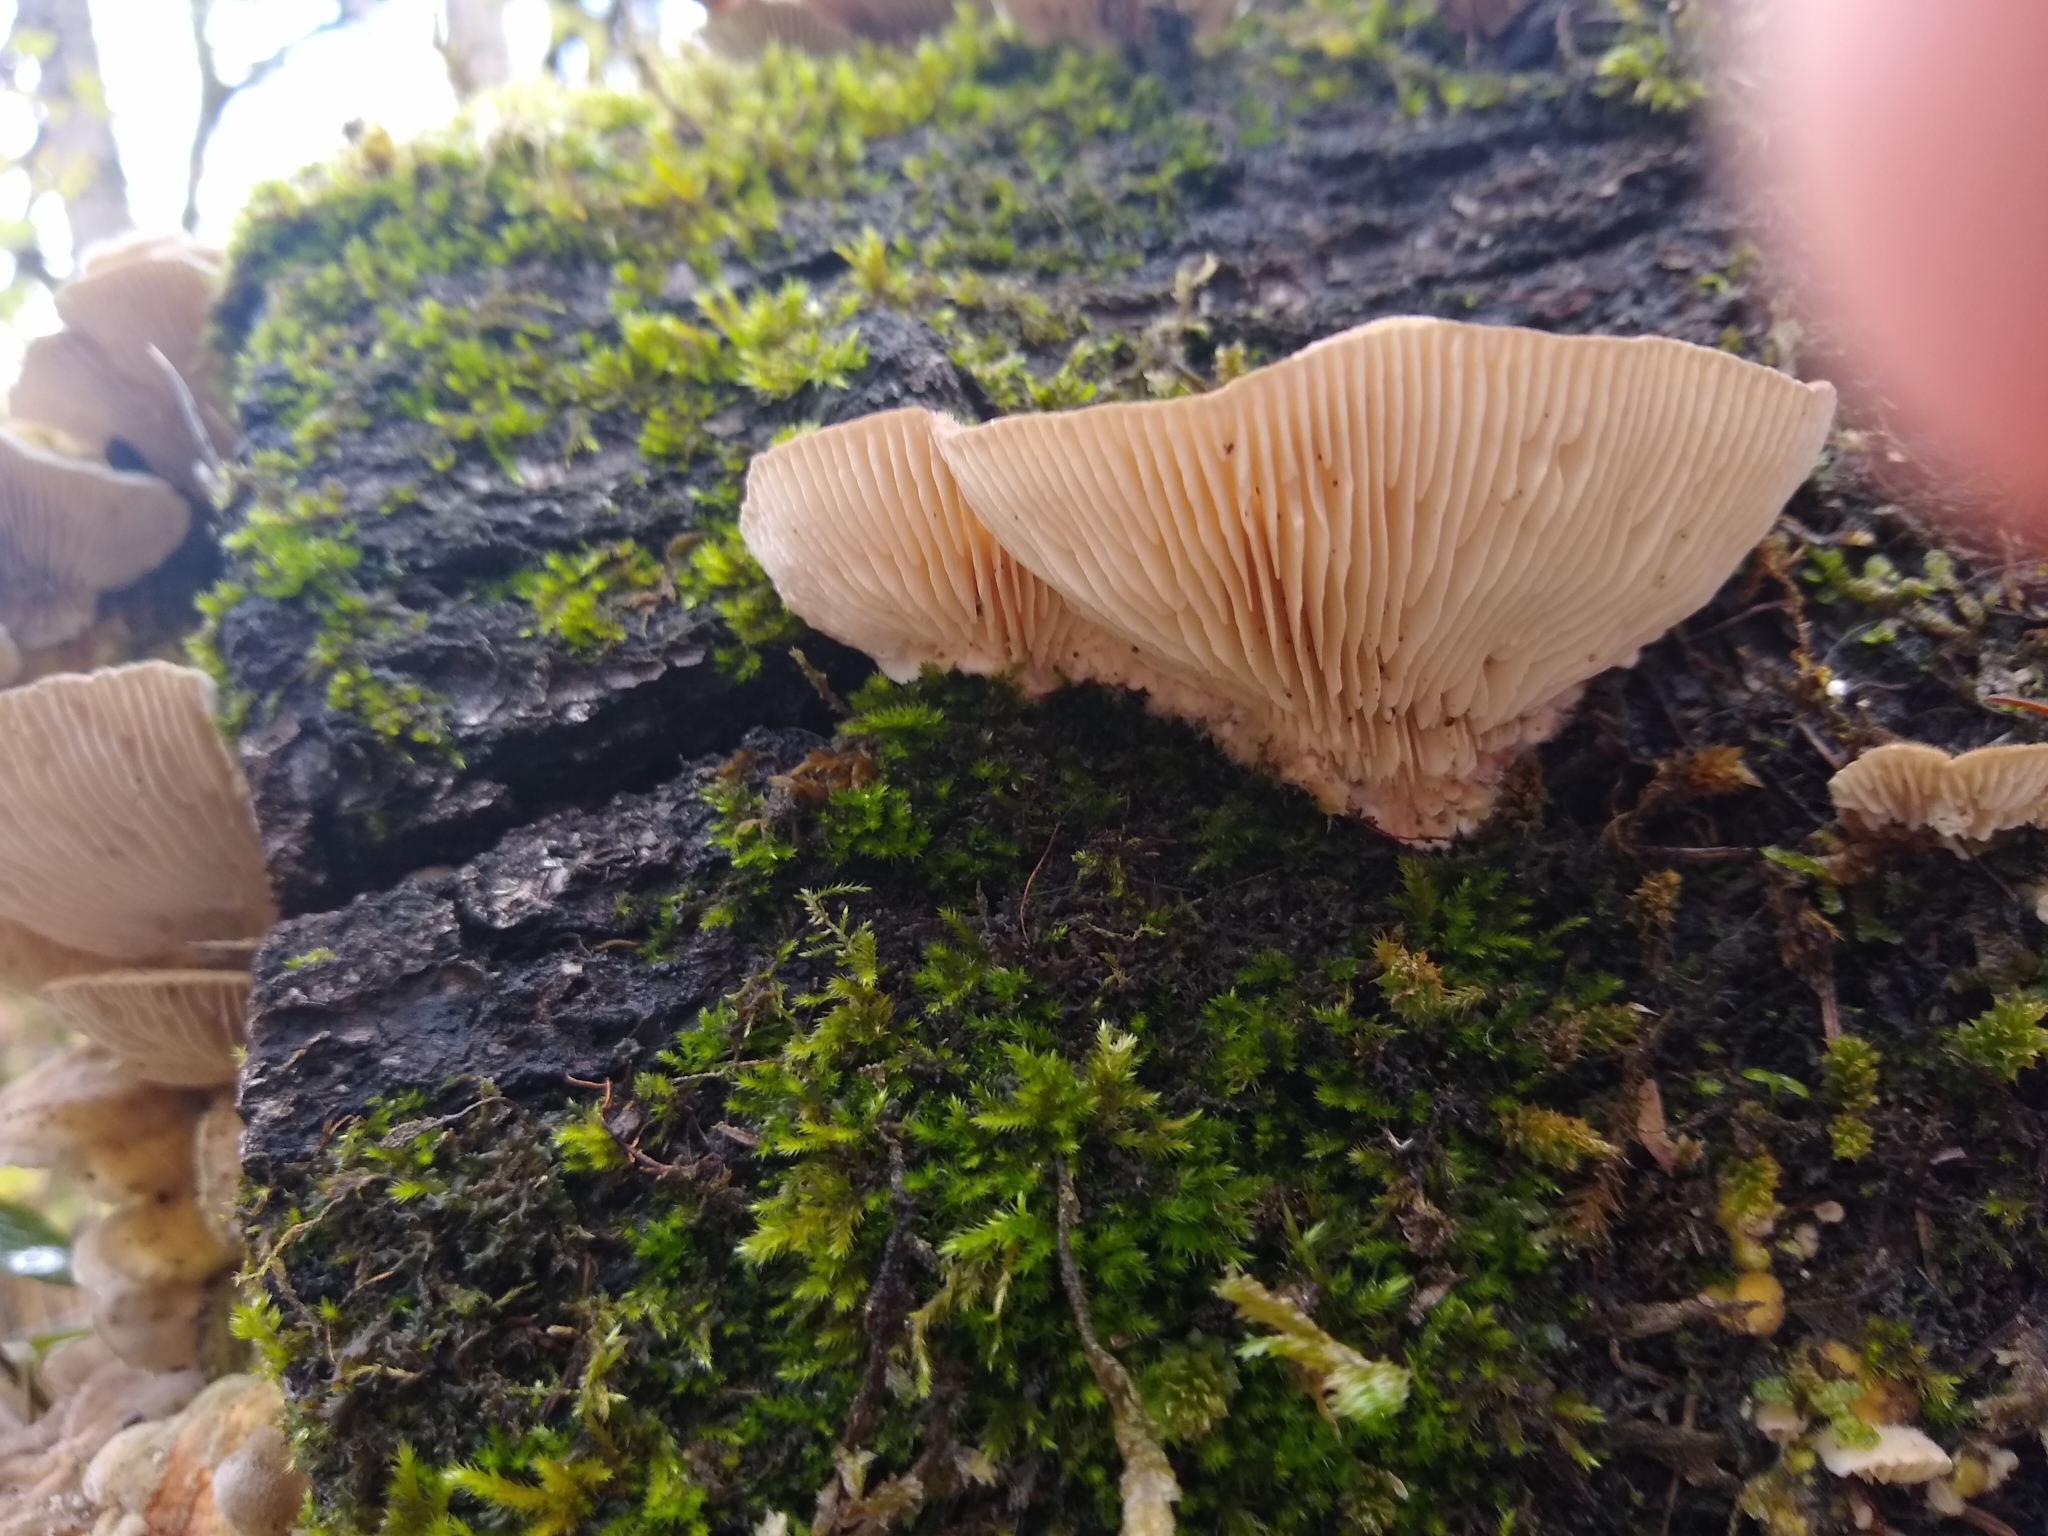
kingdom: Fungi
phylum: Basidiomycota
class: Agaricomycetes
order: Polyporales
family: Polyporaceae
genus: Lenzites
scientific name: Lenzites betulinus
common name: Birch mazegill
